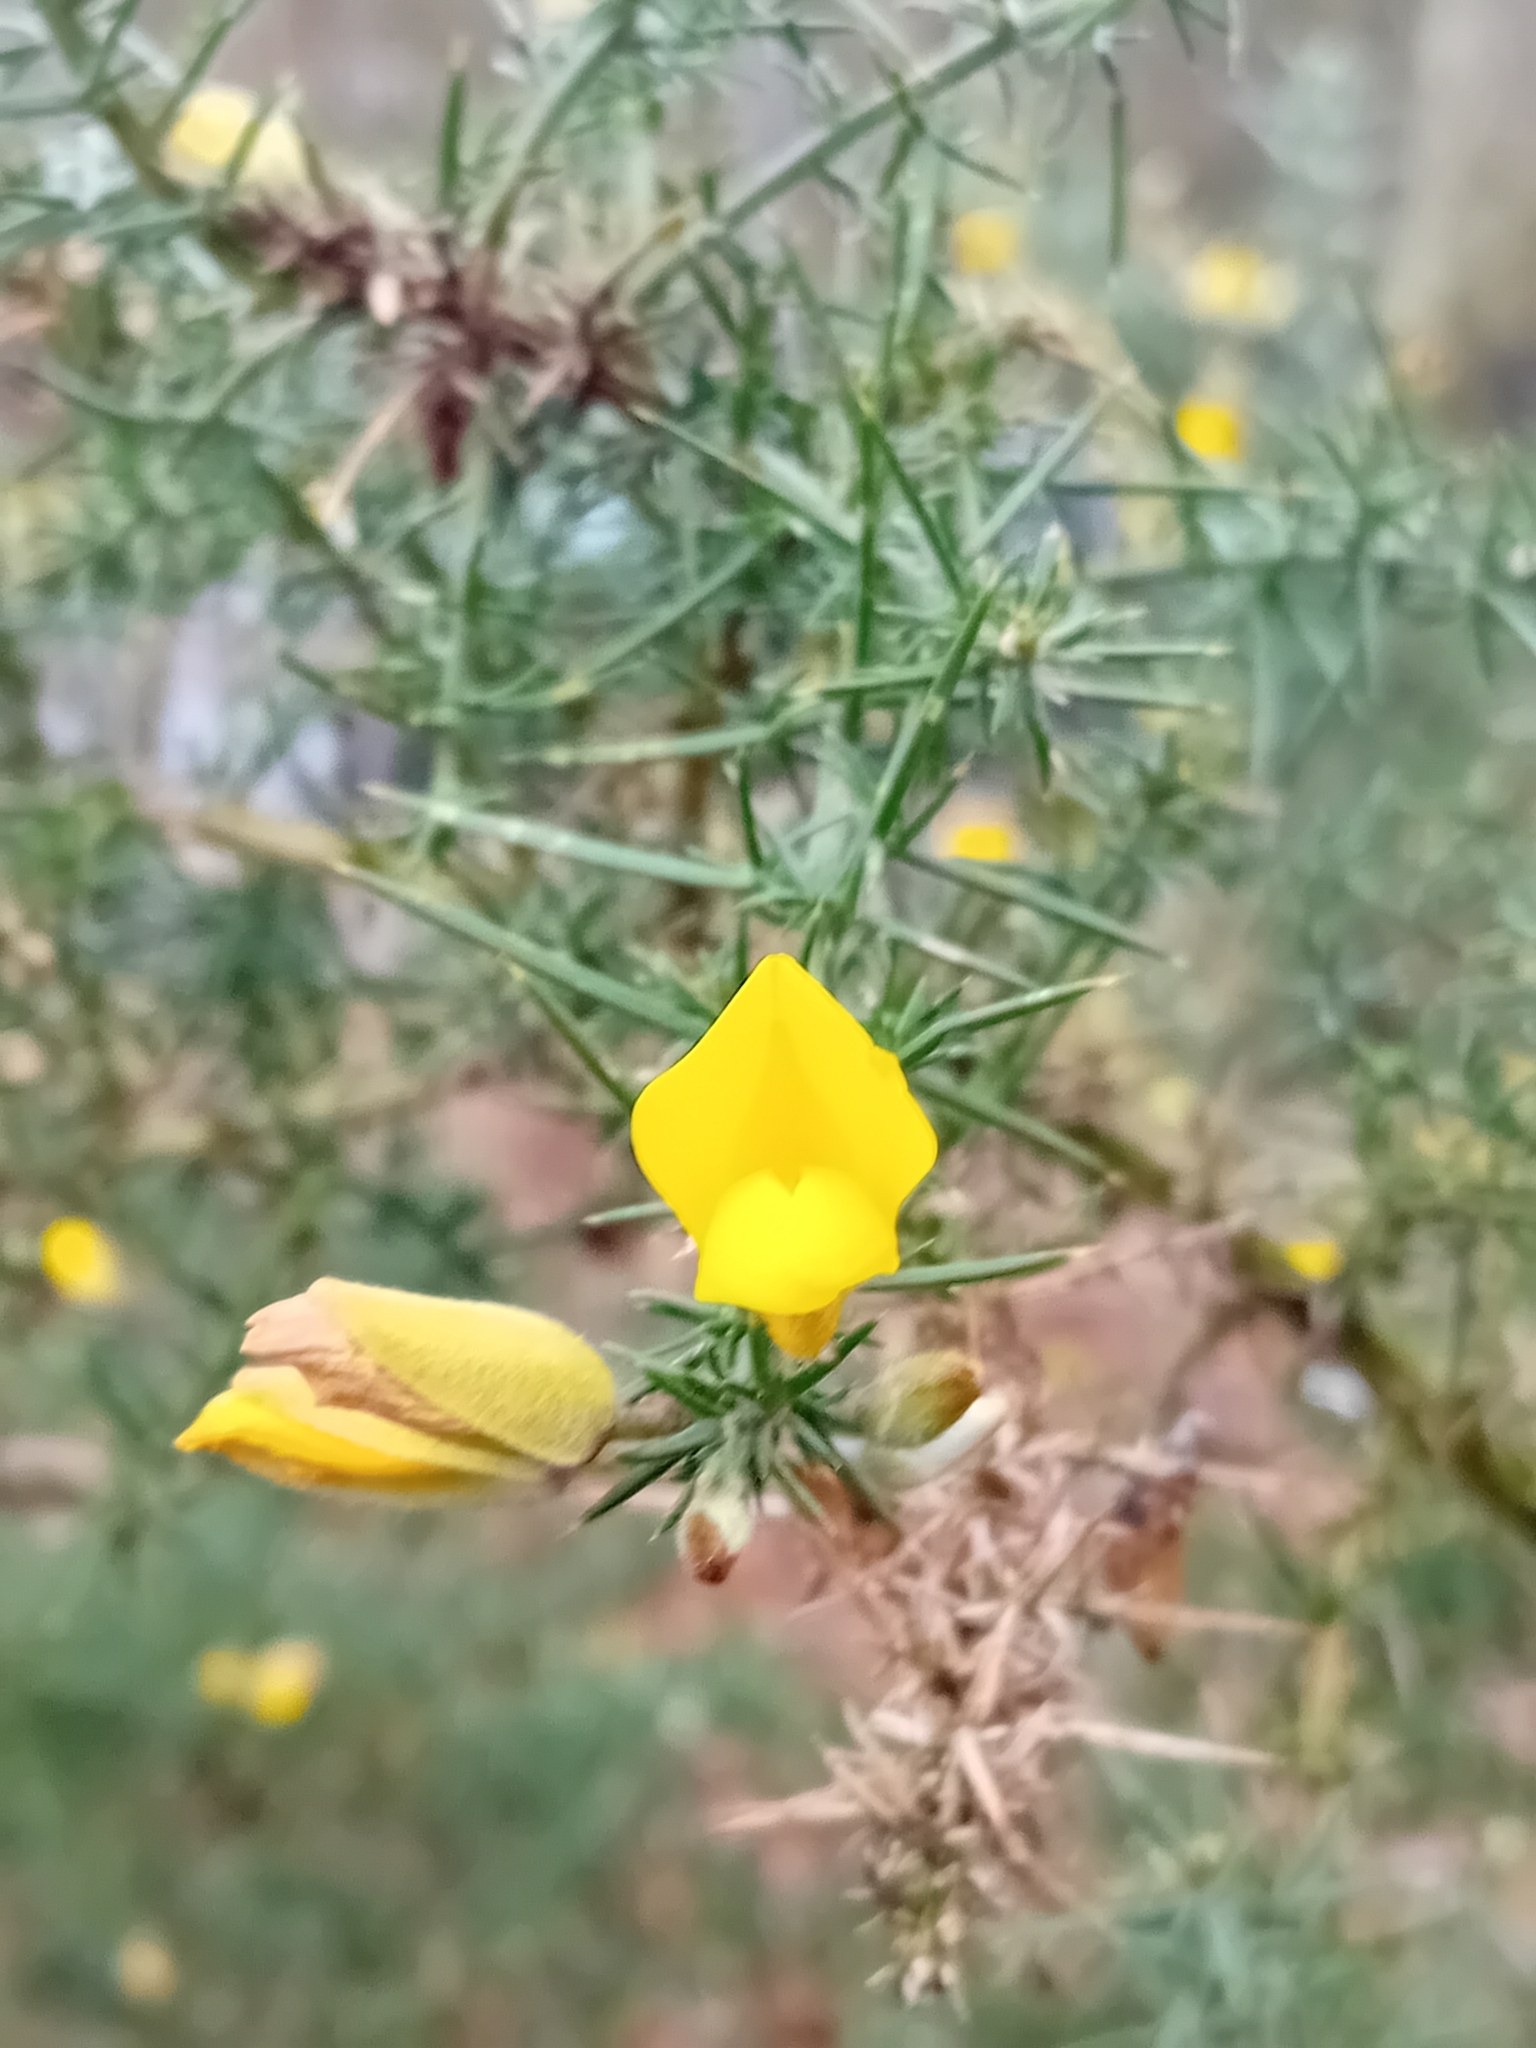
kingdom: Plantae
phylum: Tracheophyta
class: Magnoliopsida
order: Fabales
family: Fabaceae
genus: Ulex
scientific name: Ulex europaeus
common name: Common gorse
